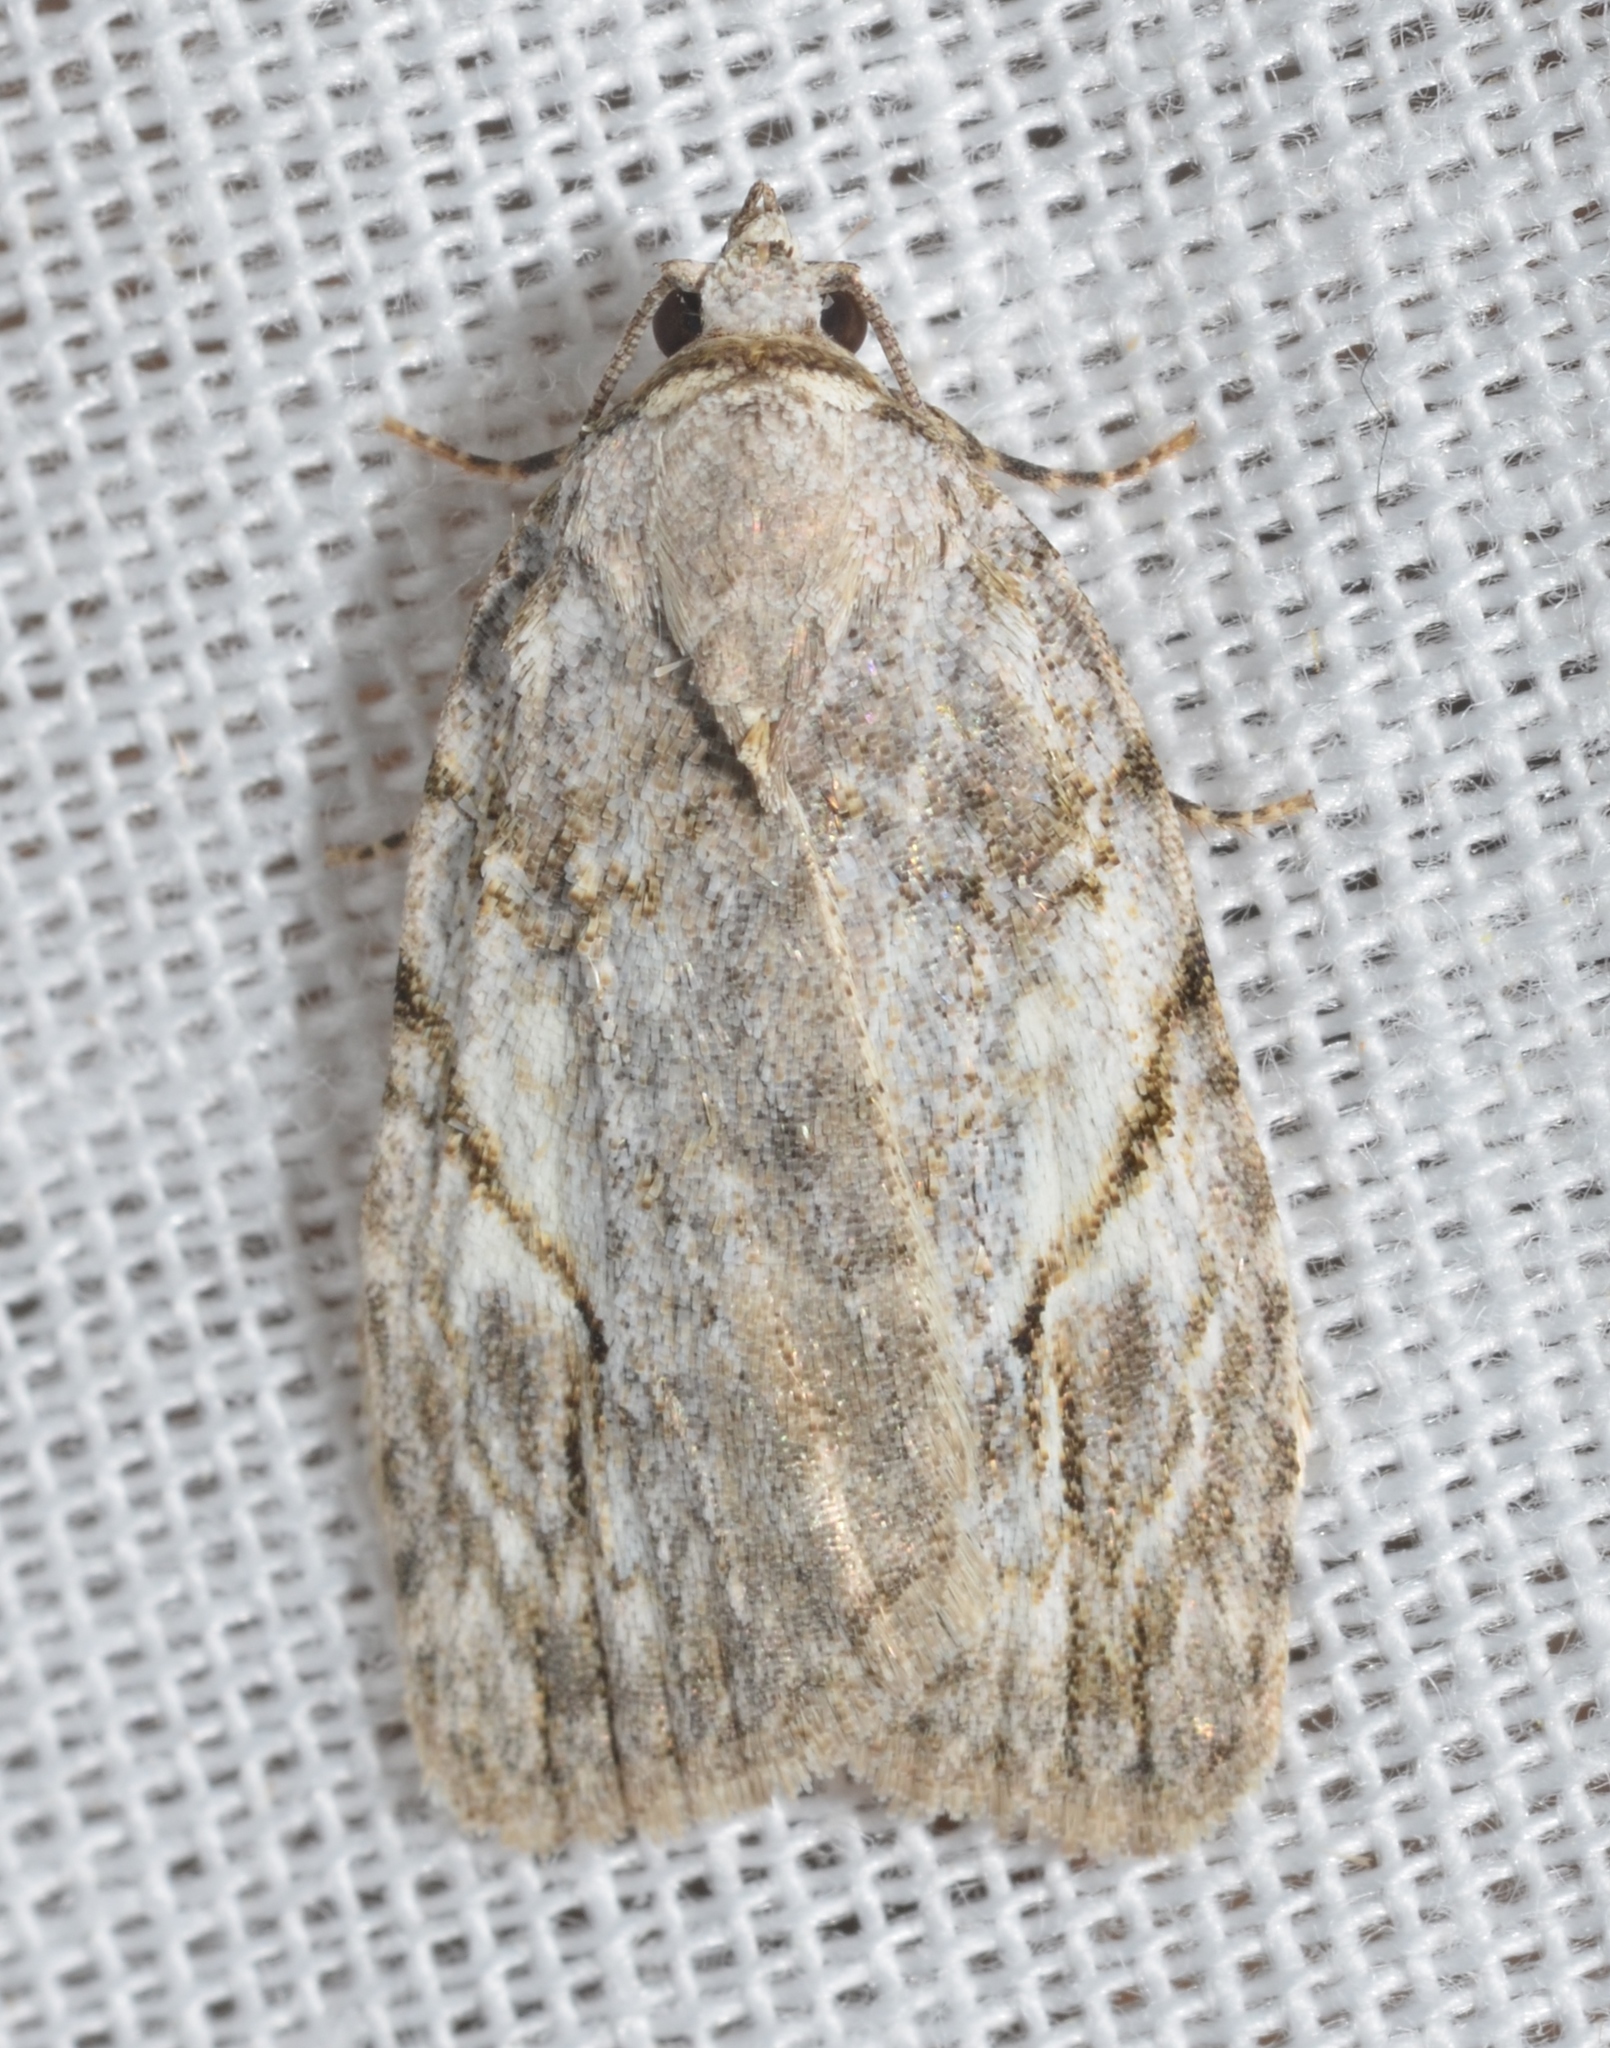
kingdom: Animalia
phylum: Arthropoda
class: Insecta
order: Lepidoptera
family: Noctuidae
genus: Balsa
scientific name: Balsa labecula
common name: White-blotched balsa moth
